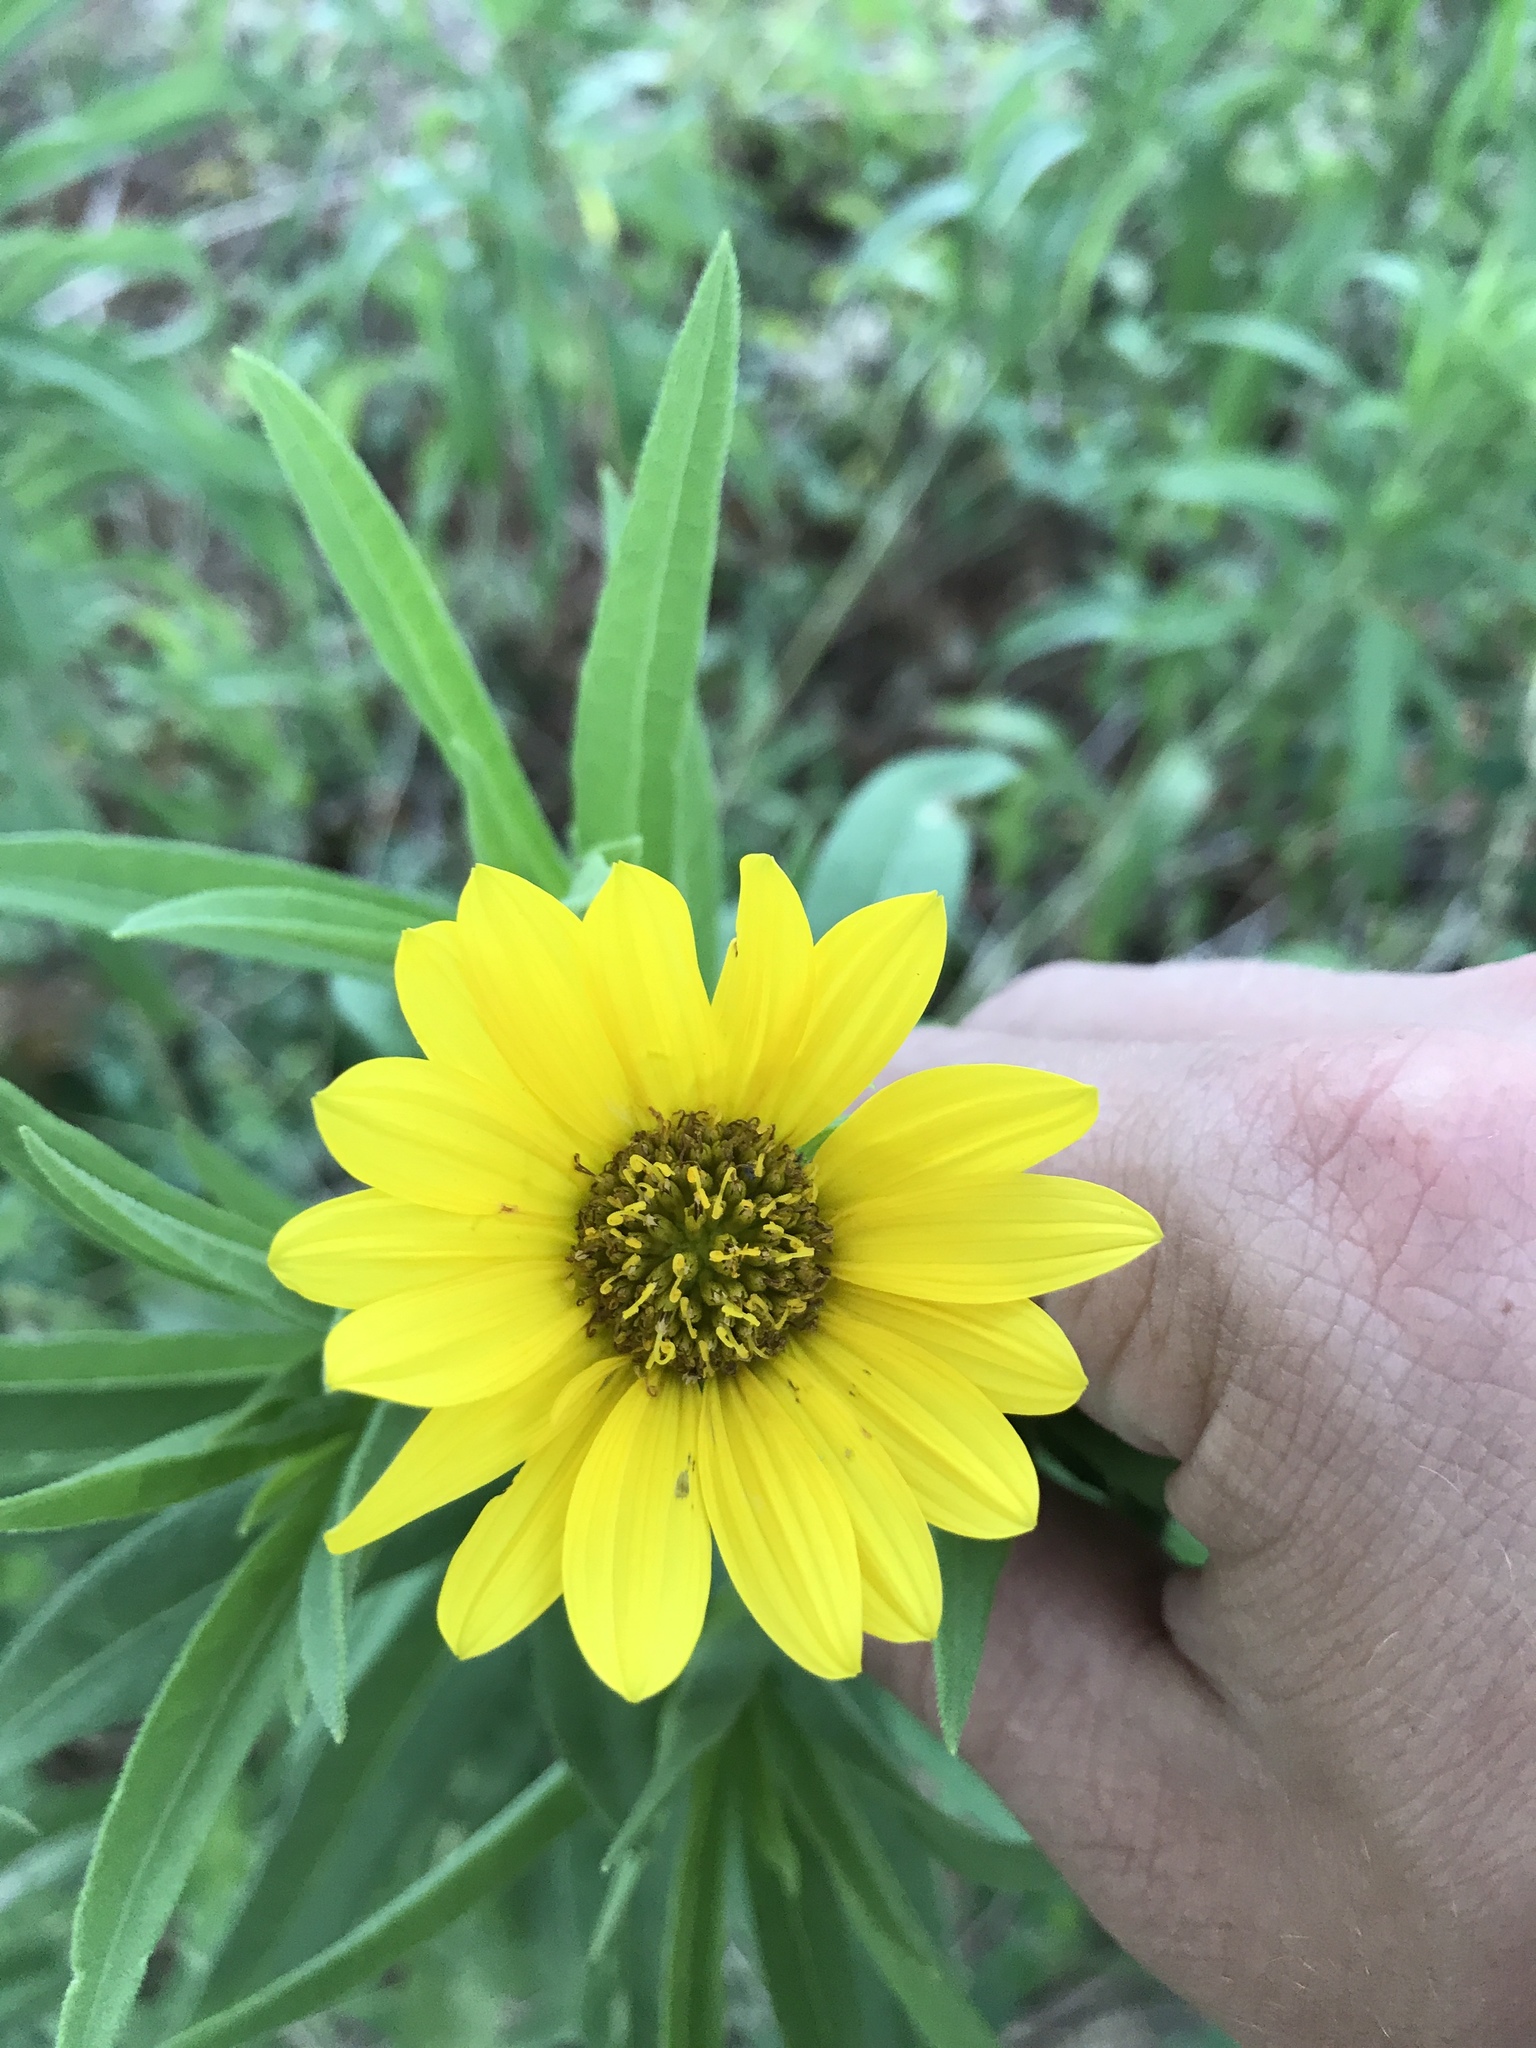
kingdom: Plantae
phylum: Tracheophyta
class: Magnoliopsida
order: Asterales
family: Asteraceae
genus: Helianthus
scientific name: Helianthus maximiliani
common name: Maximilian's sunflower
